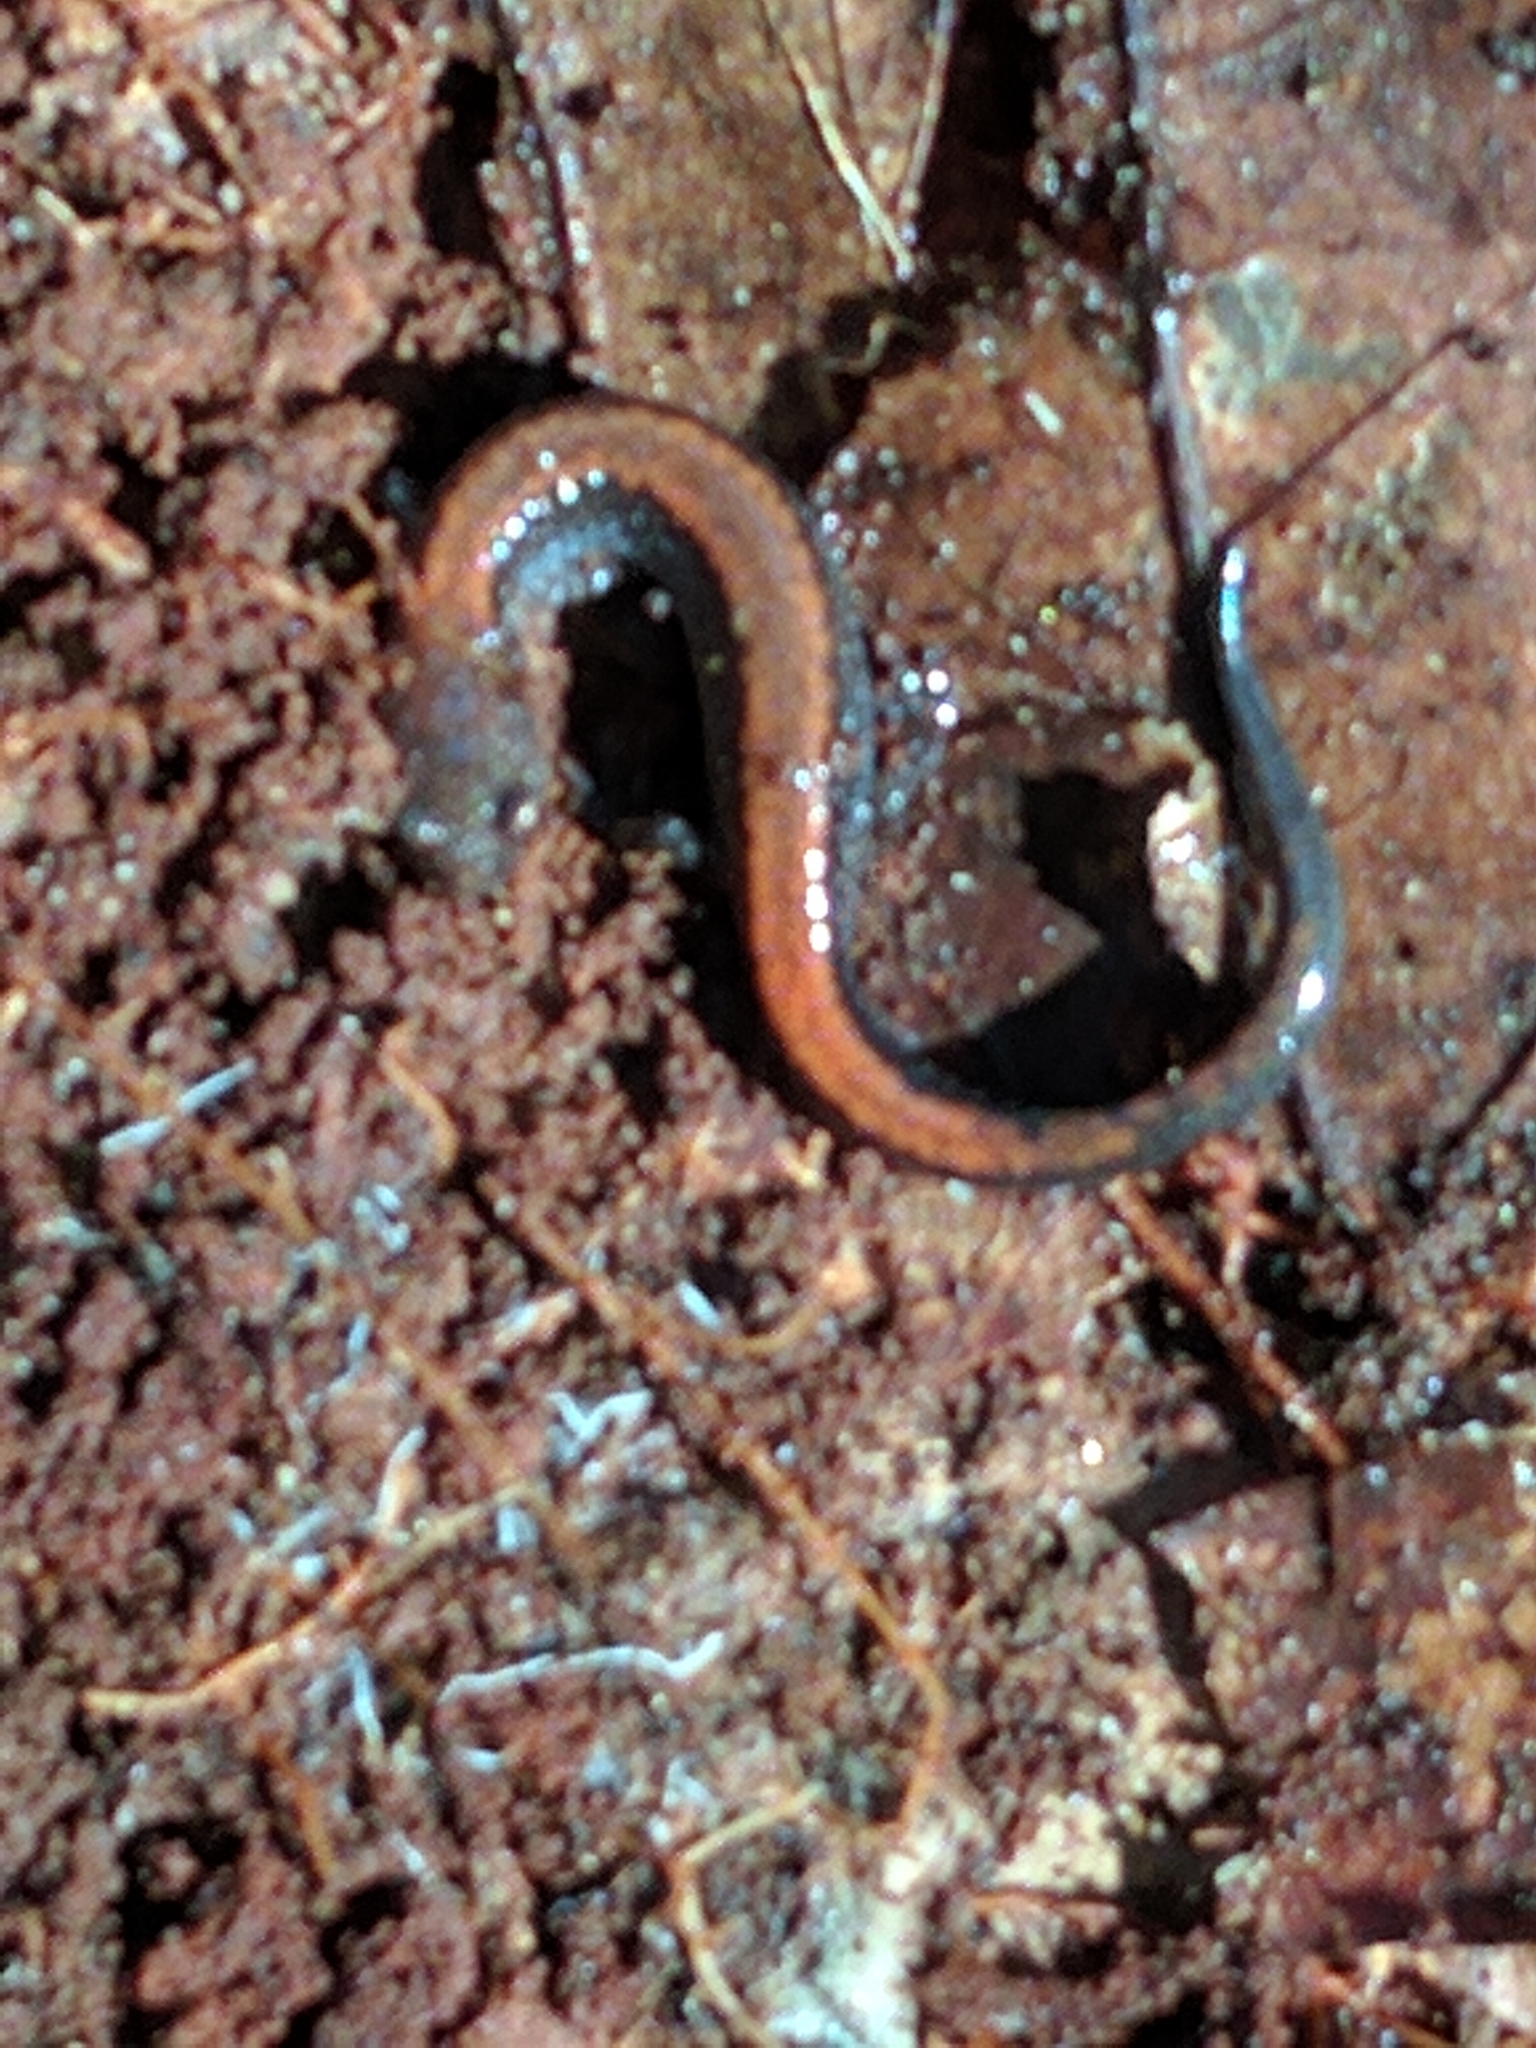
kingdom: Animalia
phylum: Chordata
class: Amphibia
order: Caudata
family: Plethodontidae
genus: Plethodon
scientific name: Plethodon cinereus
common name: Redback salamander
